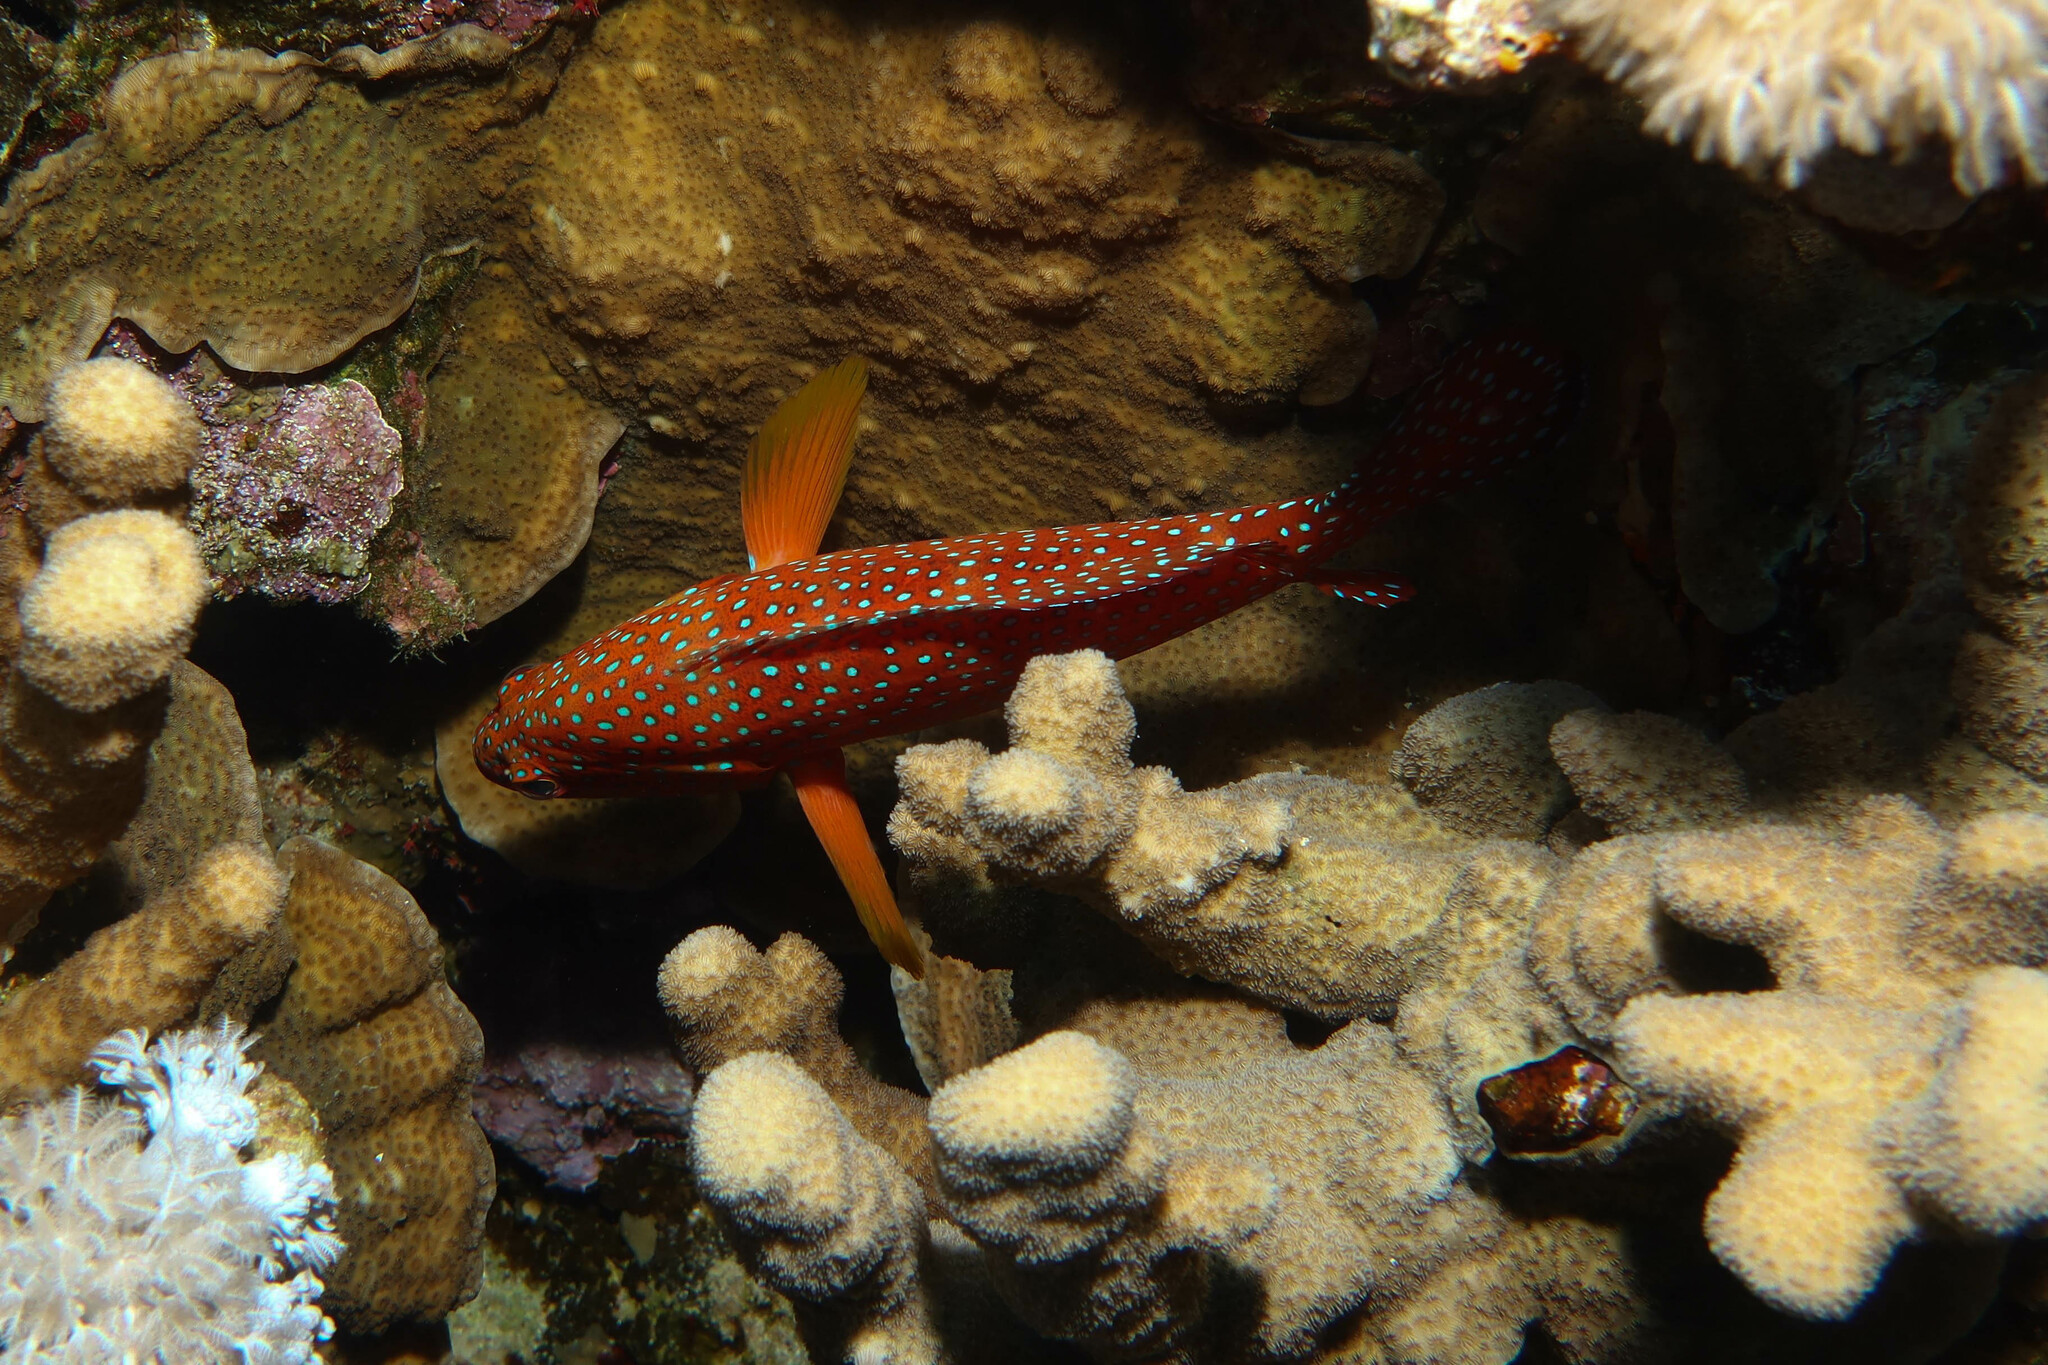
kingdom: Animalia
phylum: Chordata
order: Perciformes
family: Serranidae
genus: Cephalopholis
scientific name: Cephalopholis miniata
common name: Coral hind
